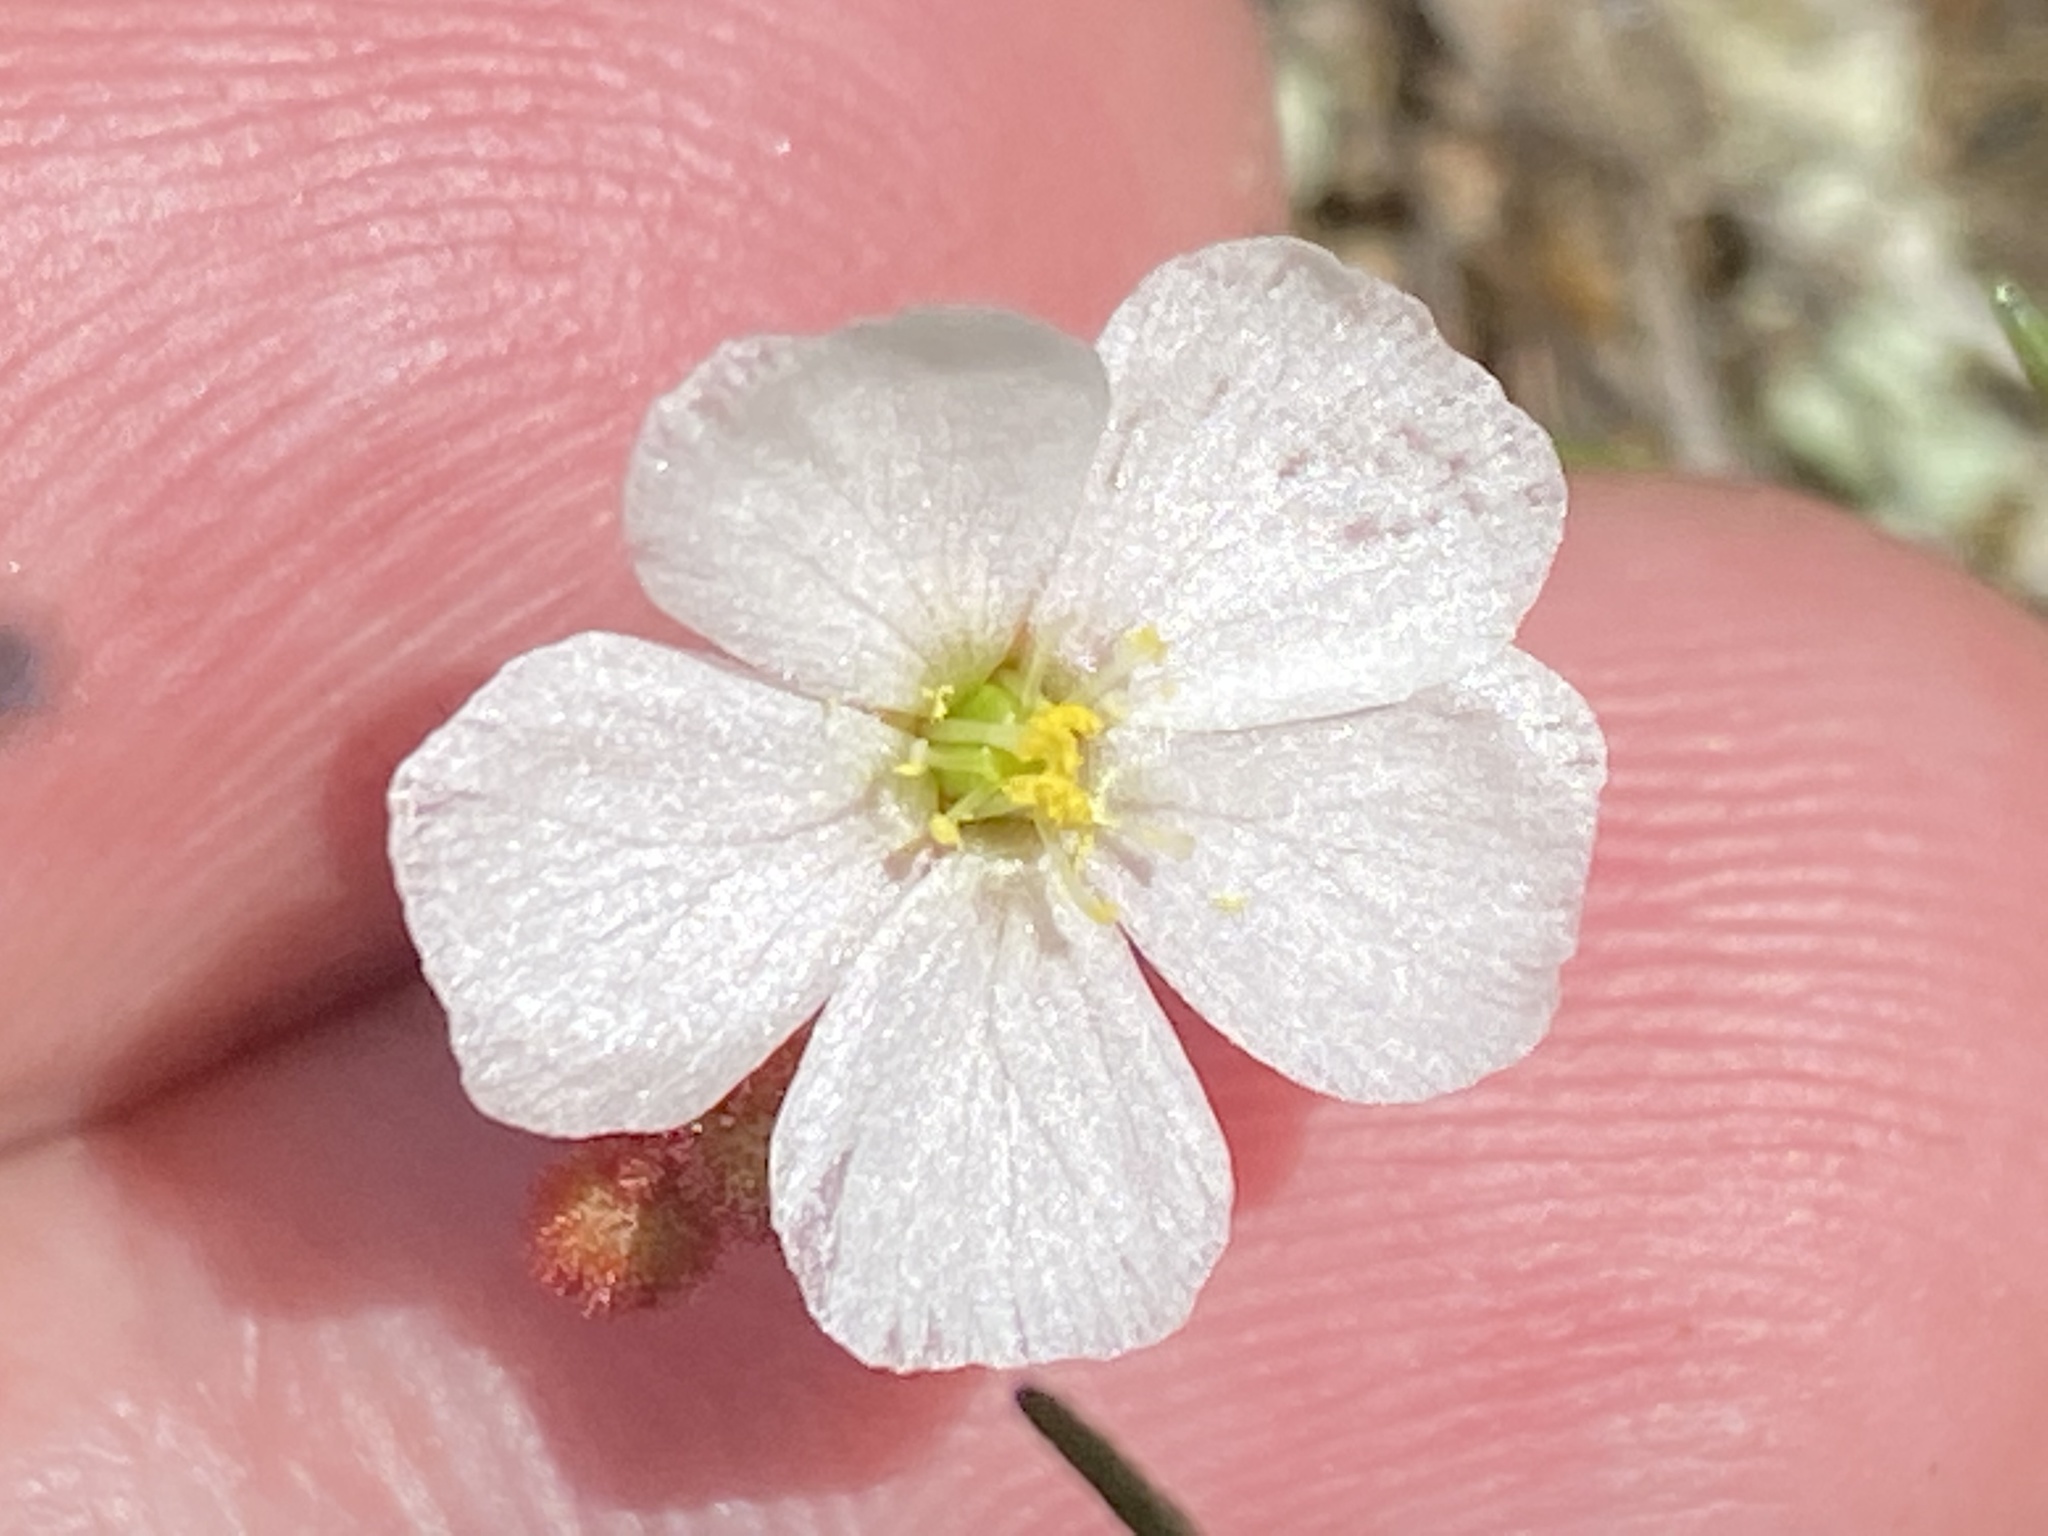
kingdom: Plantae
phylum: Tracheophyta
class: Magnoliopsida
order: Caryophyllales
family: Droseraceae
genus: Drosera
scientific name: Drosera brevifolia
